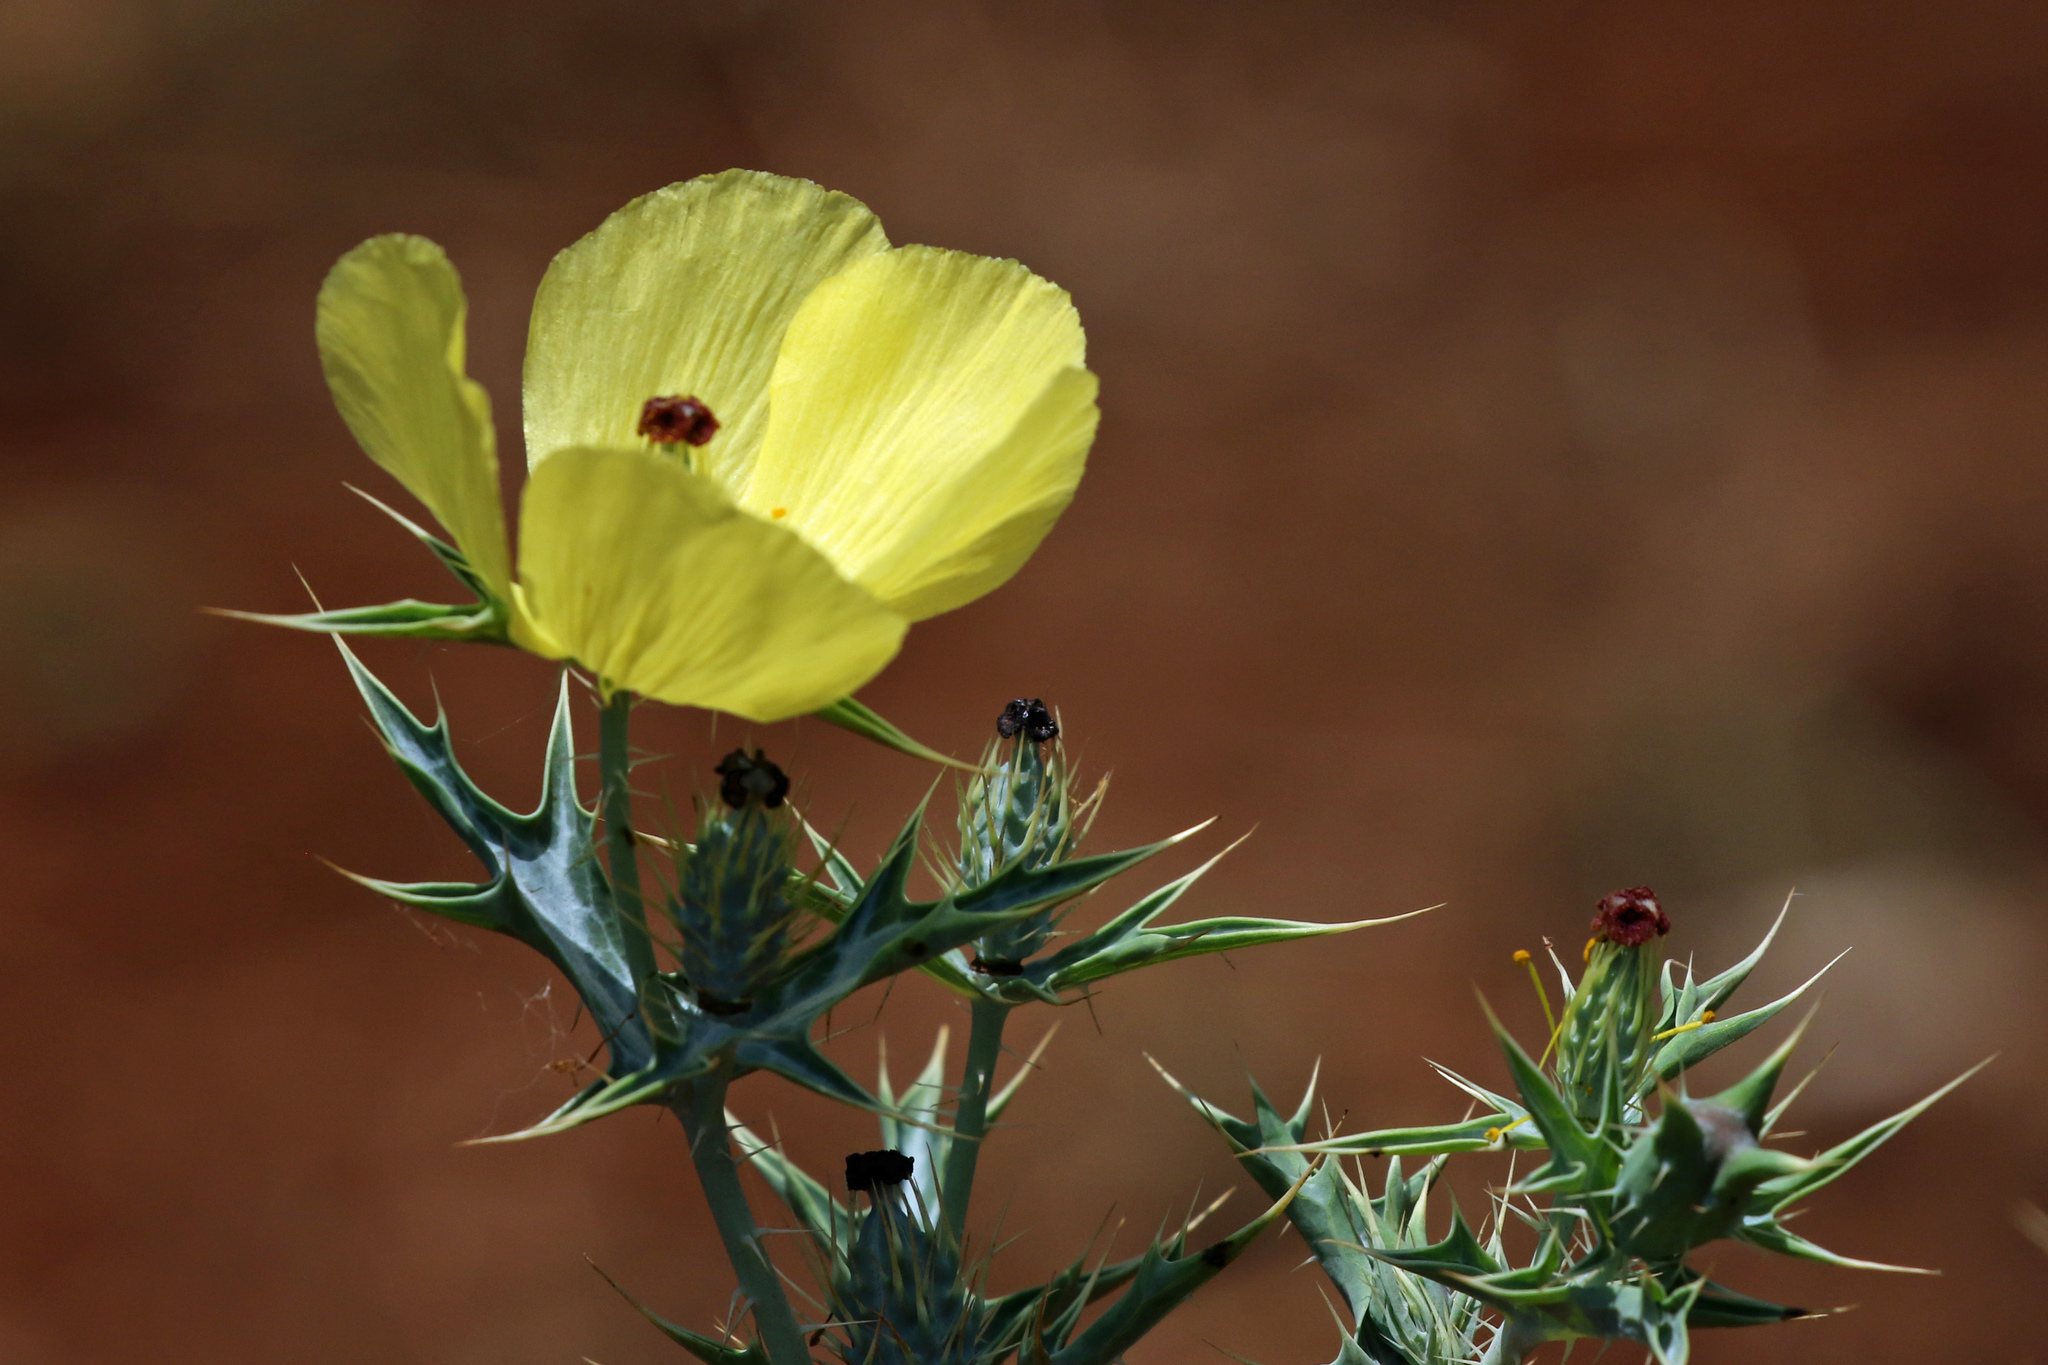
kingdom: Plantae
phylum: Tracheophyta
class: Magnoliopsida
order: Ranunculales
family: Papaveraceae
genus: Argemone
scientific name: Argemone mexicana
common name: Mexican poppy
